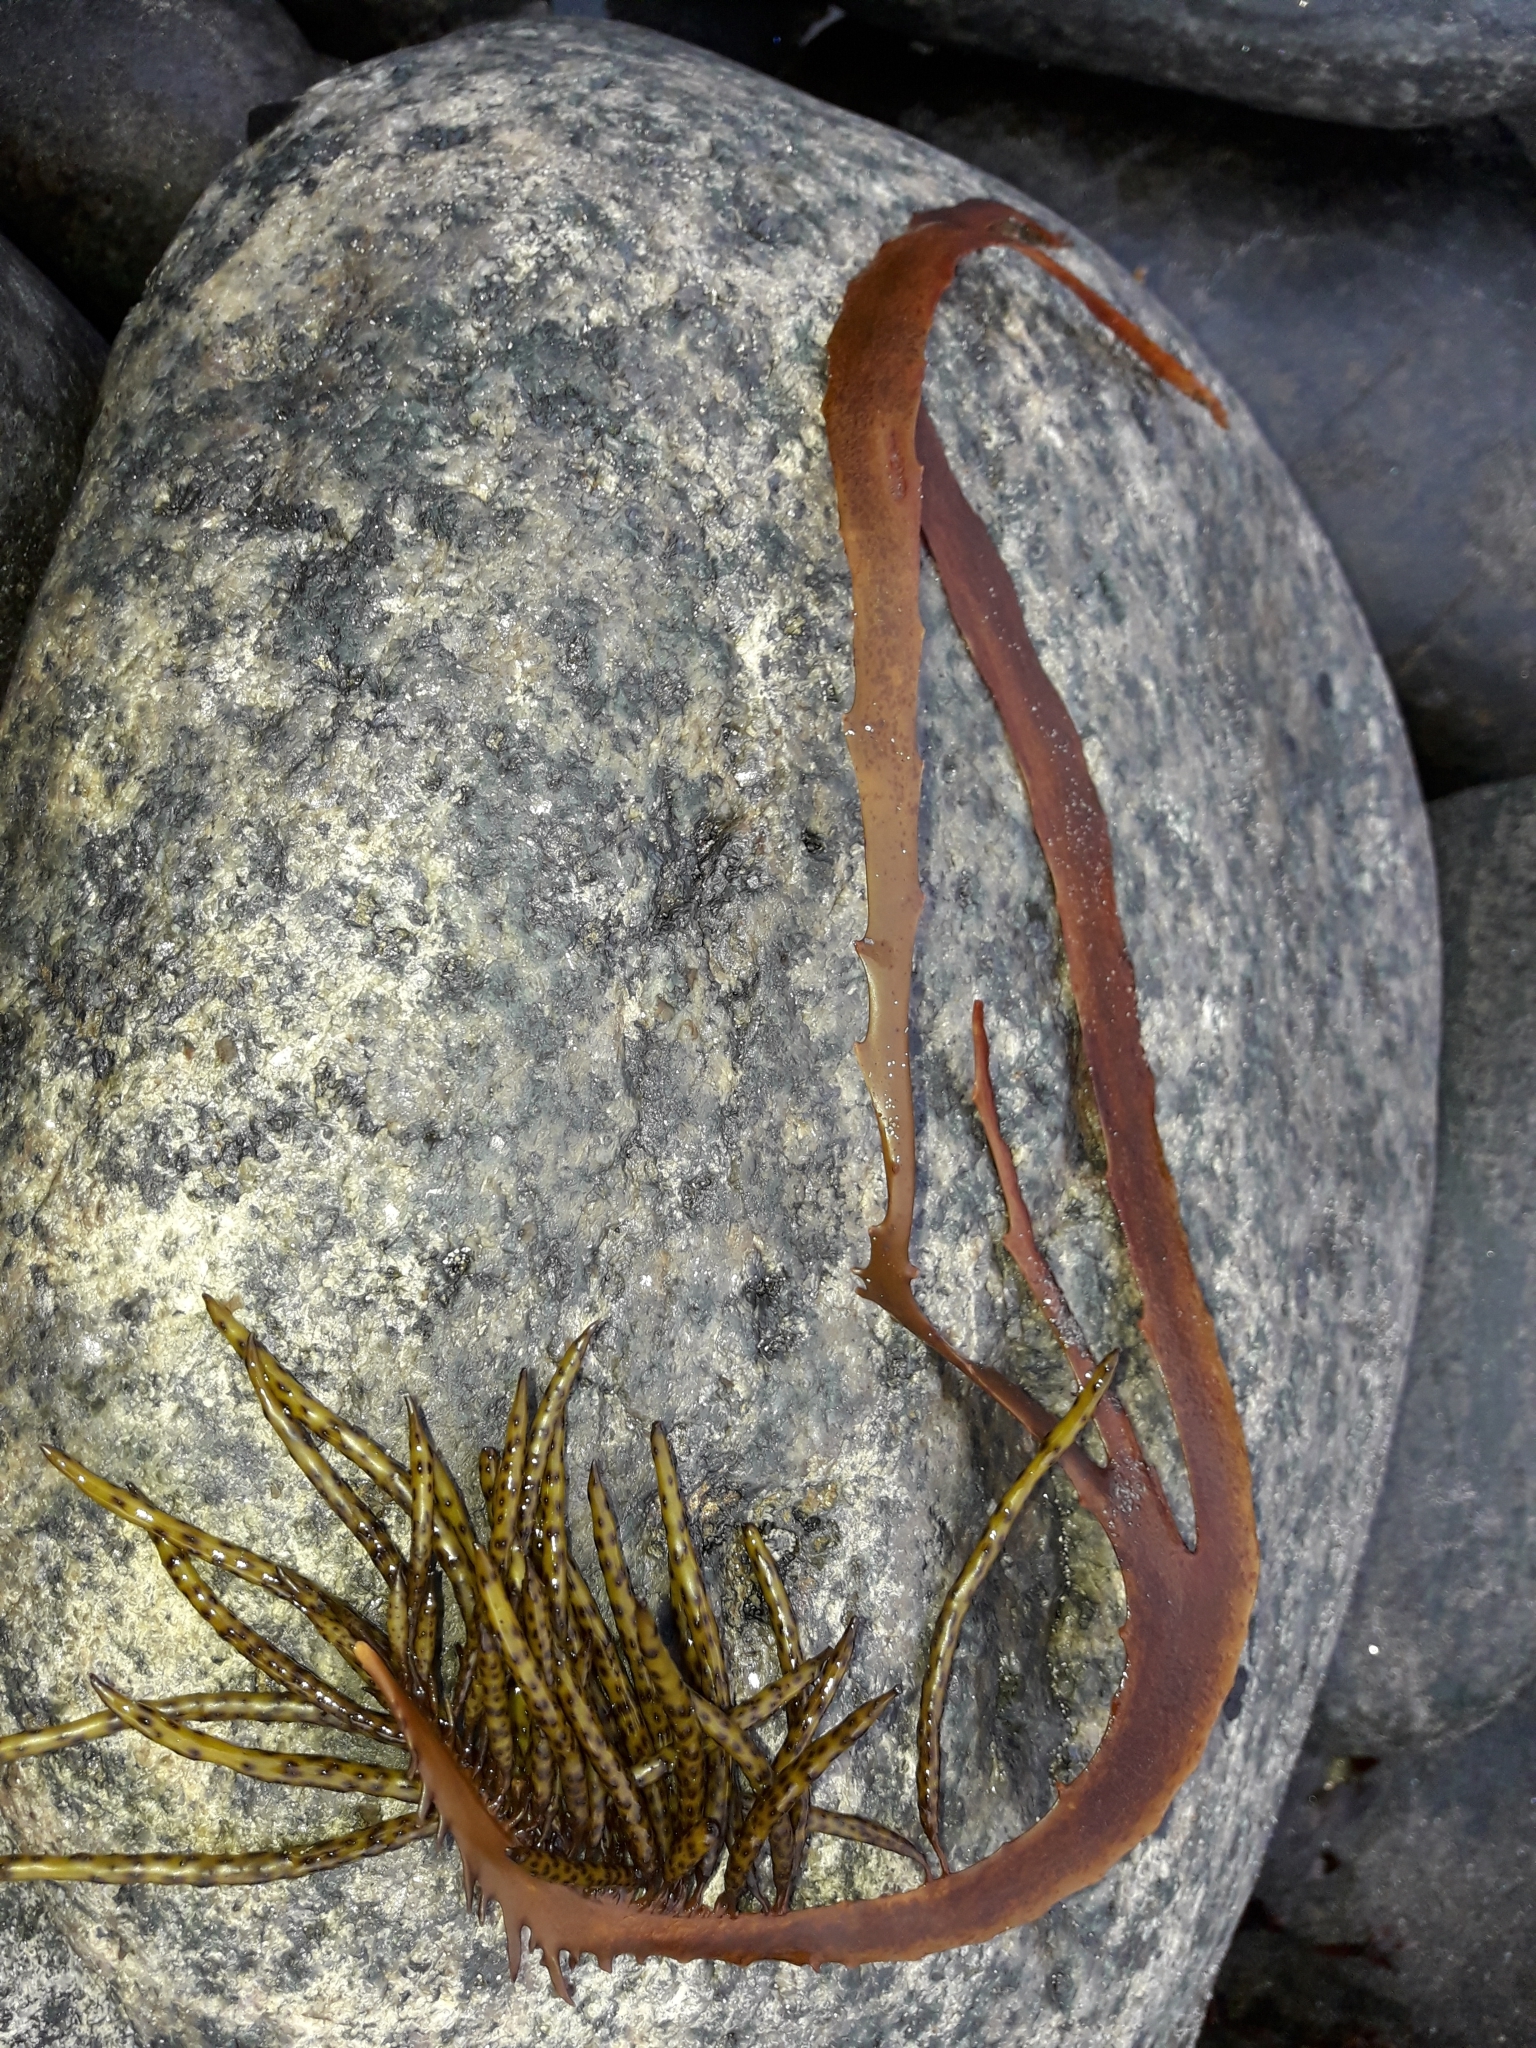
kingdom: Chromista
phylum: Ochrophyta
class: Phaeophyceae
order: Fucales
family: Seirococcaceae
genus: Marginariella
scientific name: Marginariella boryana
